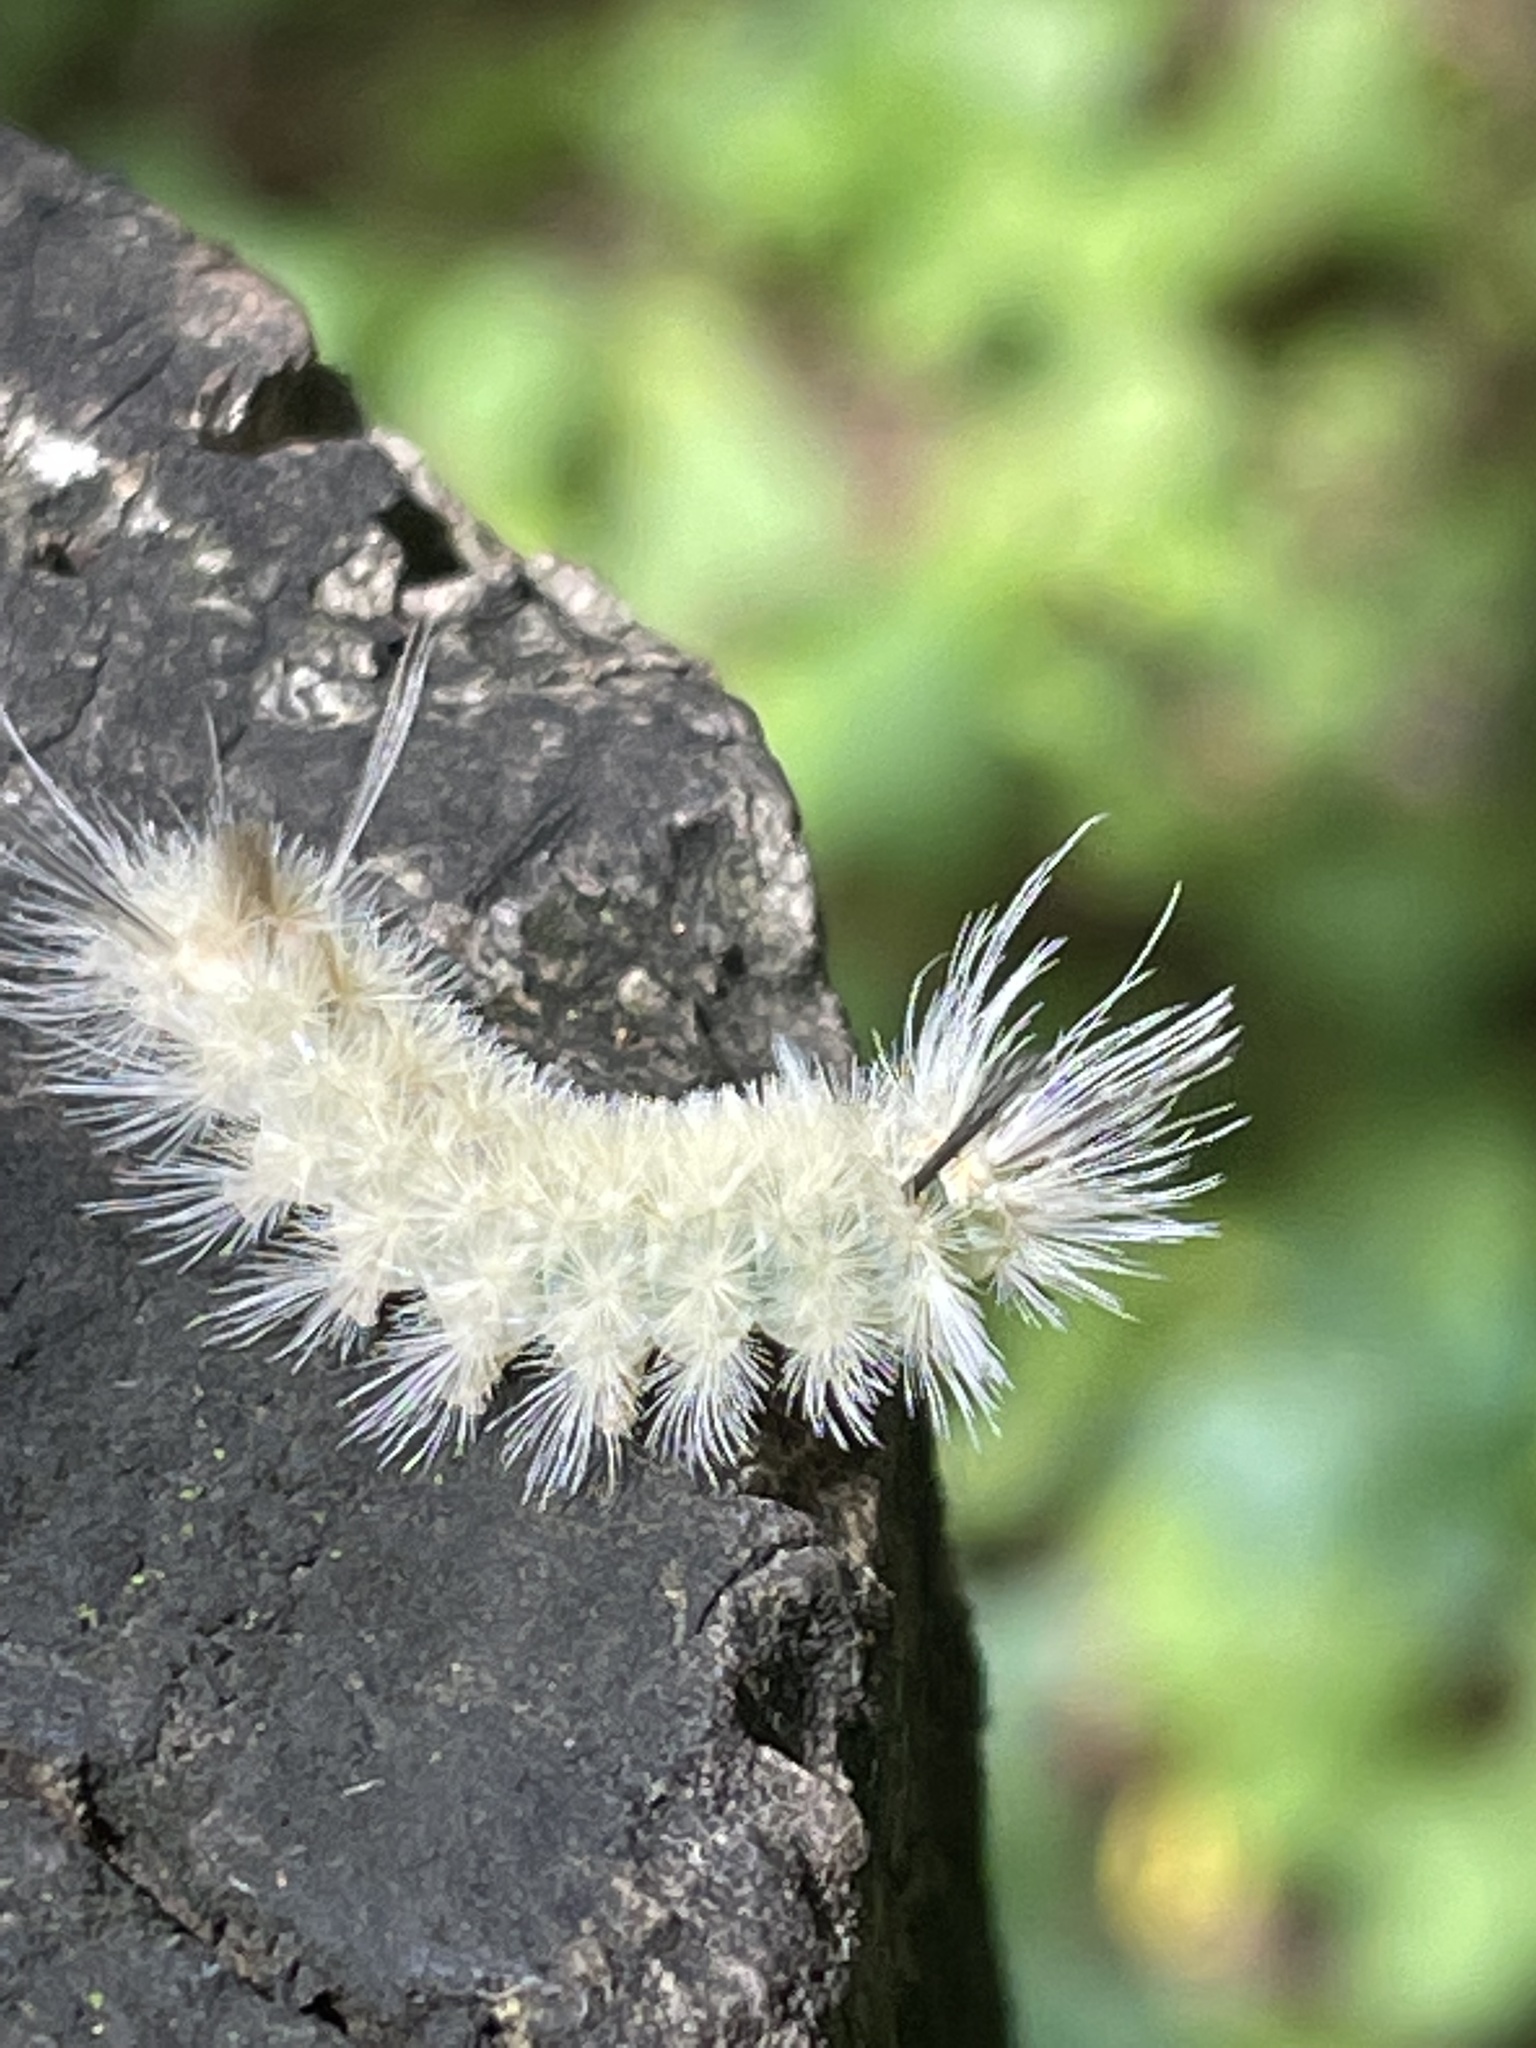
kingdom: Animalia
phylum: Arthropoda
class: Insecta
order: Lepidoptera
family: Erebidae
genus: Halysidota
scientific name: Halysidota tessellaris
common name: Banded tussock moth
